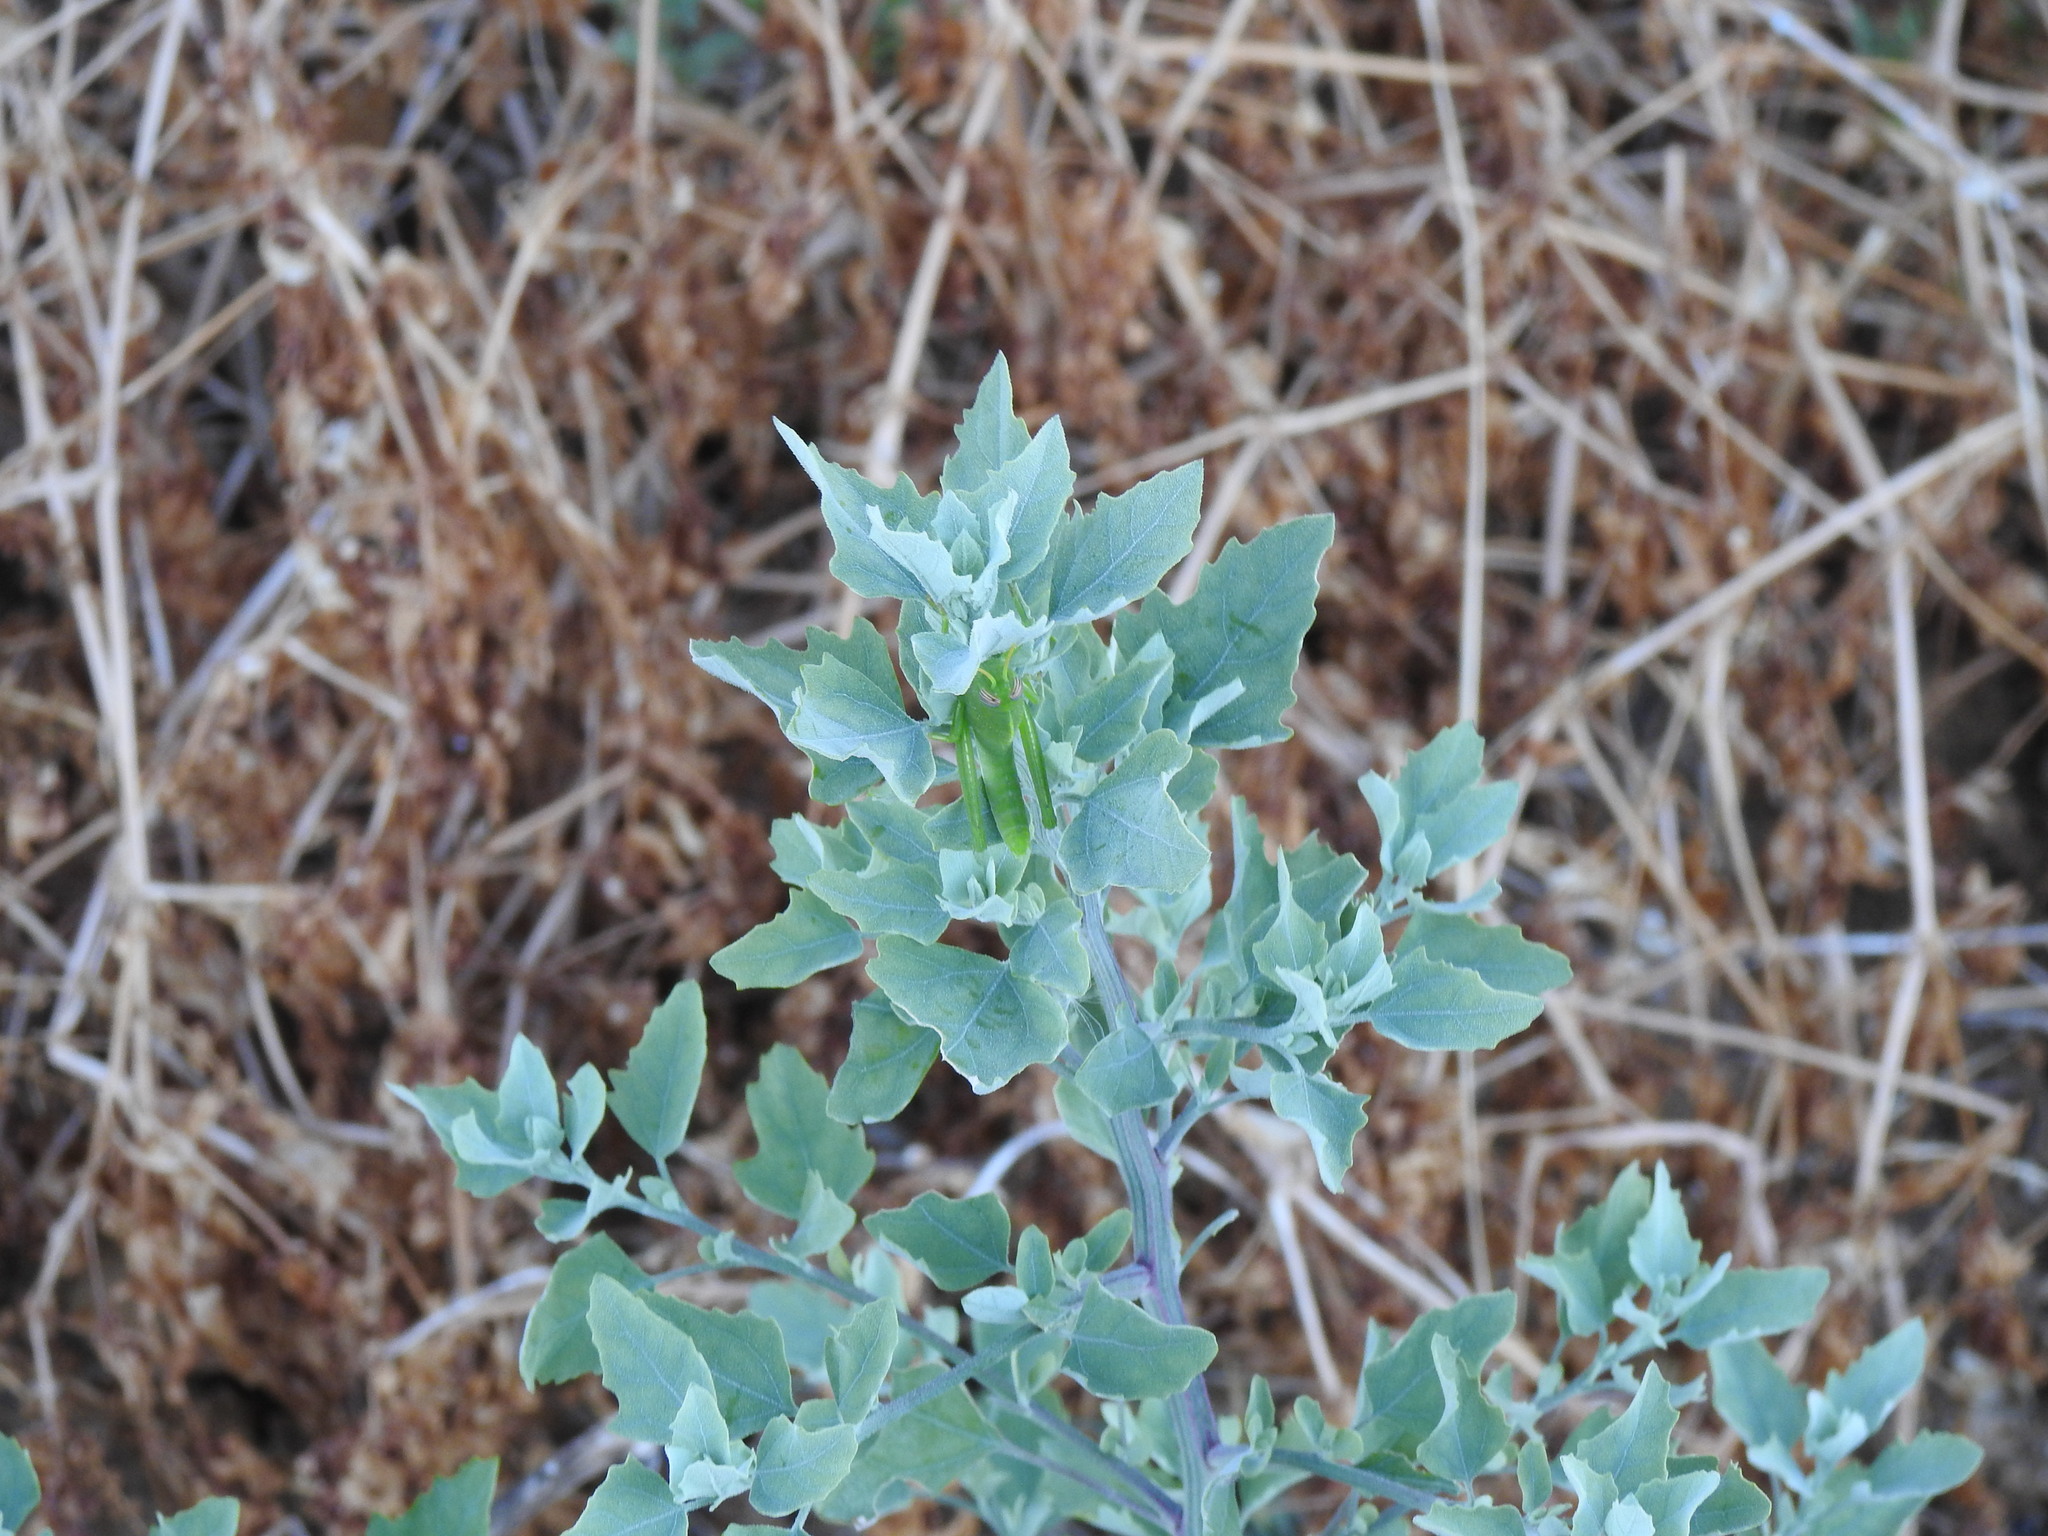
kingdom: Plantae
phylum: Tracheophyta
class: Magnoliopsida
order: Caryophyllales
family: Amaranthaceae
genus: Chenopodium
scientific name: Chenopodium album
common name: Fat-hen
